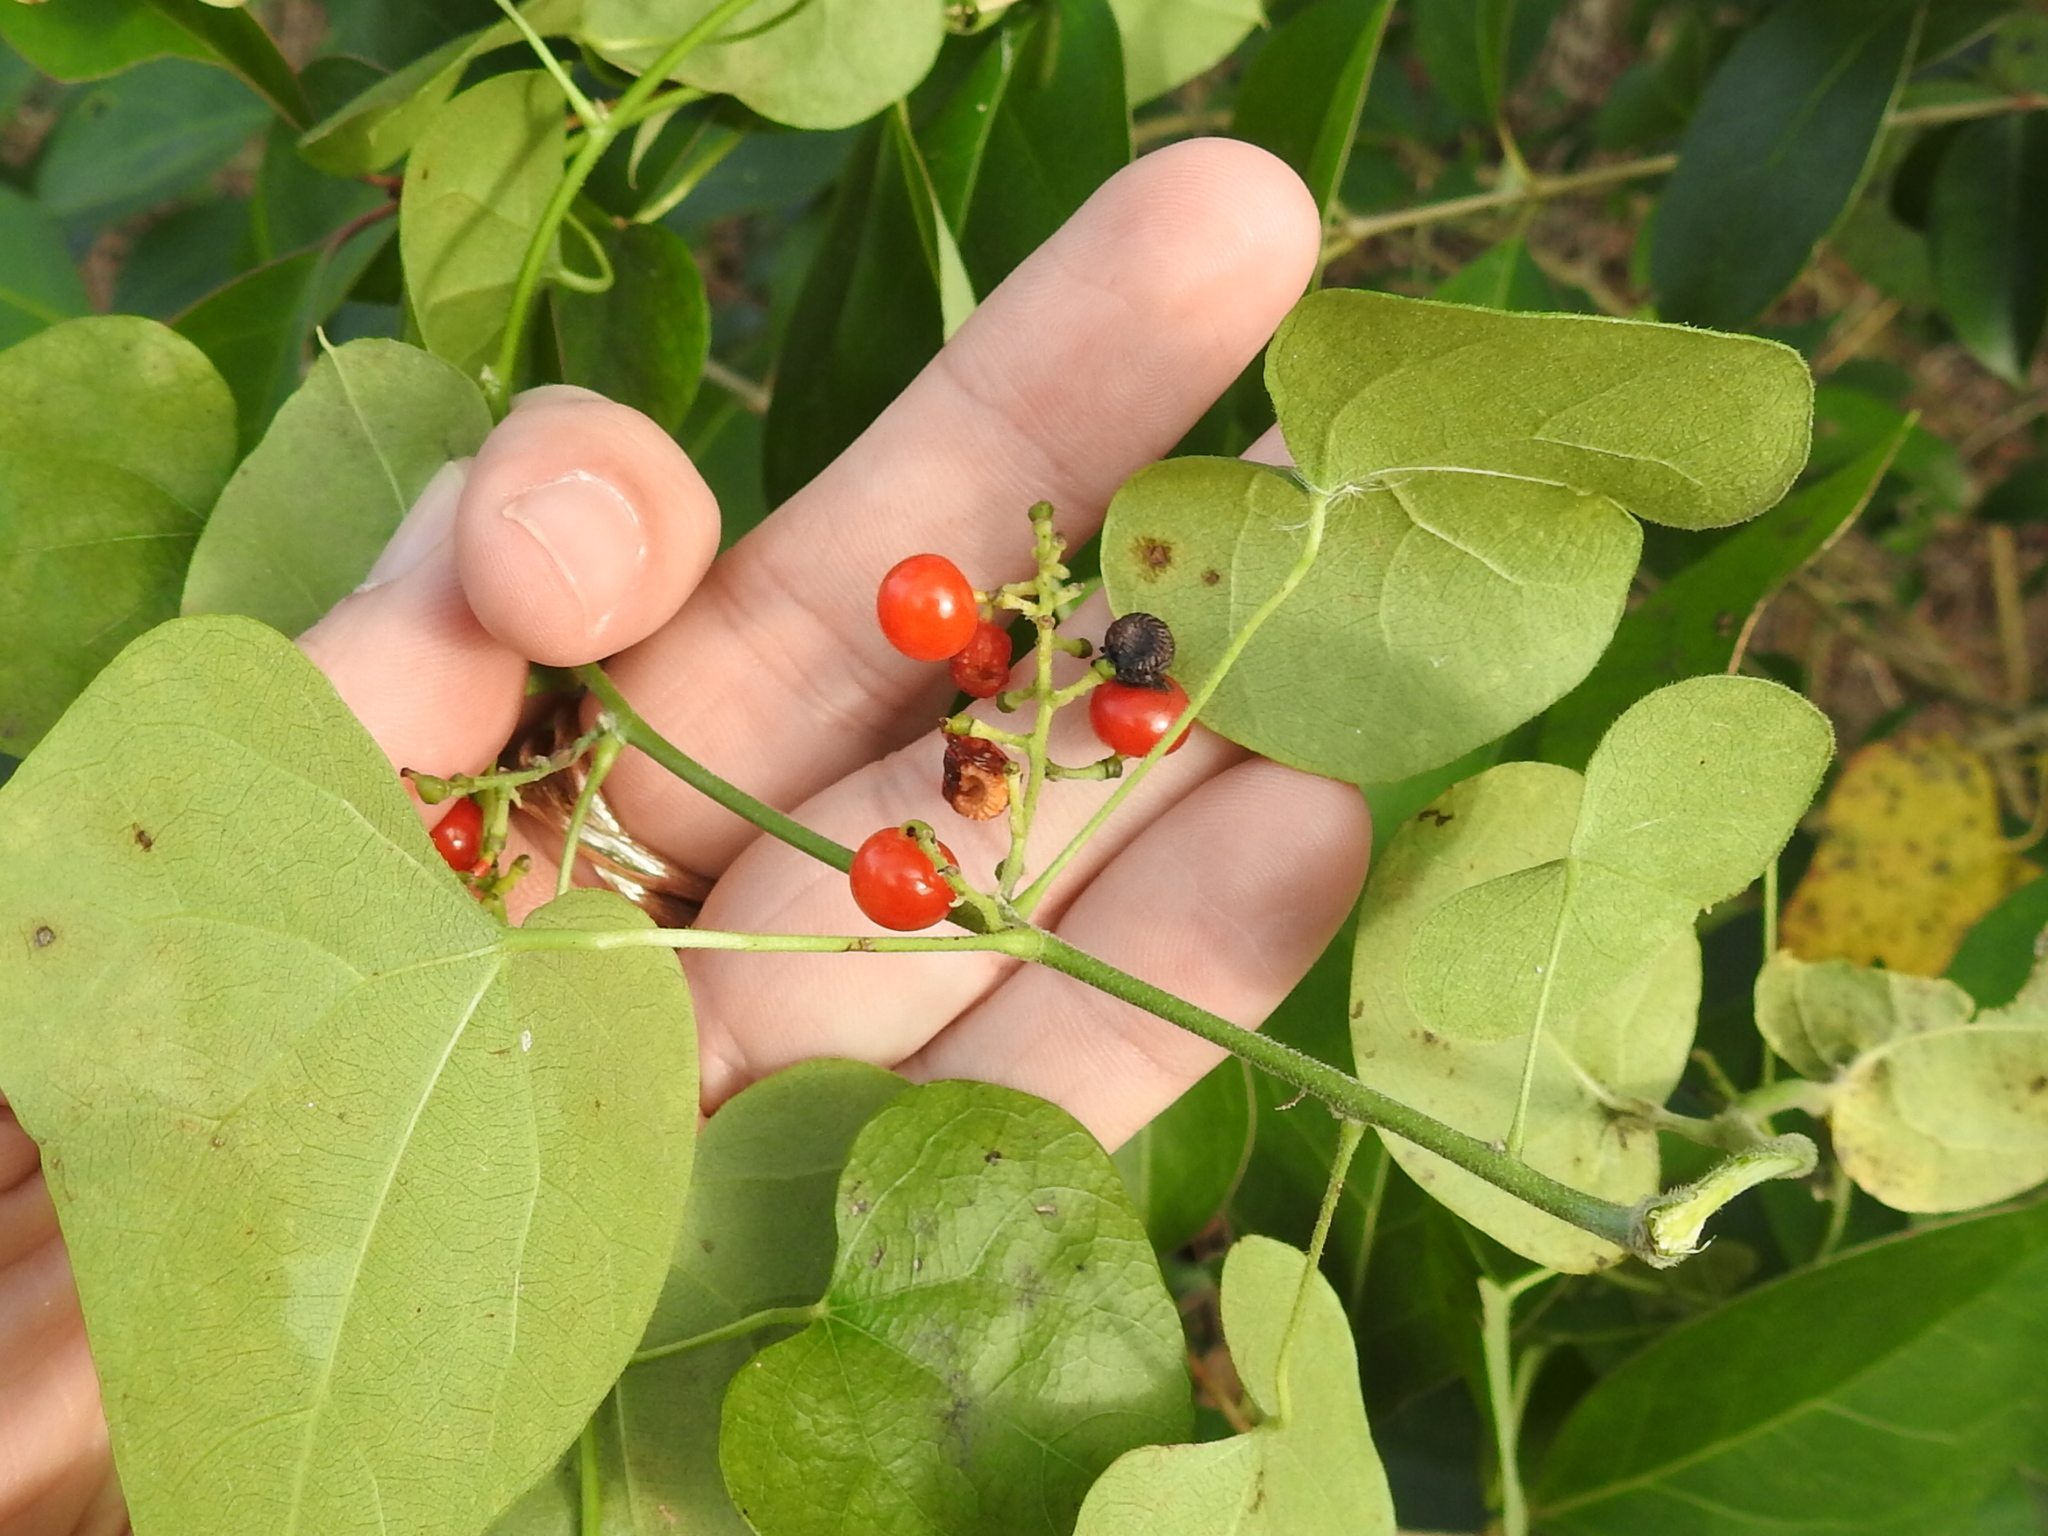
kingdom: Plantae
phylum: Tracheophyta
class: Magnoliopsida
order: Ranunculales
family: Menispermaceae
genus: Cocculus
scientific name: Cocculus carolinus
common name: Carolina moonseed
